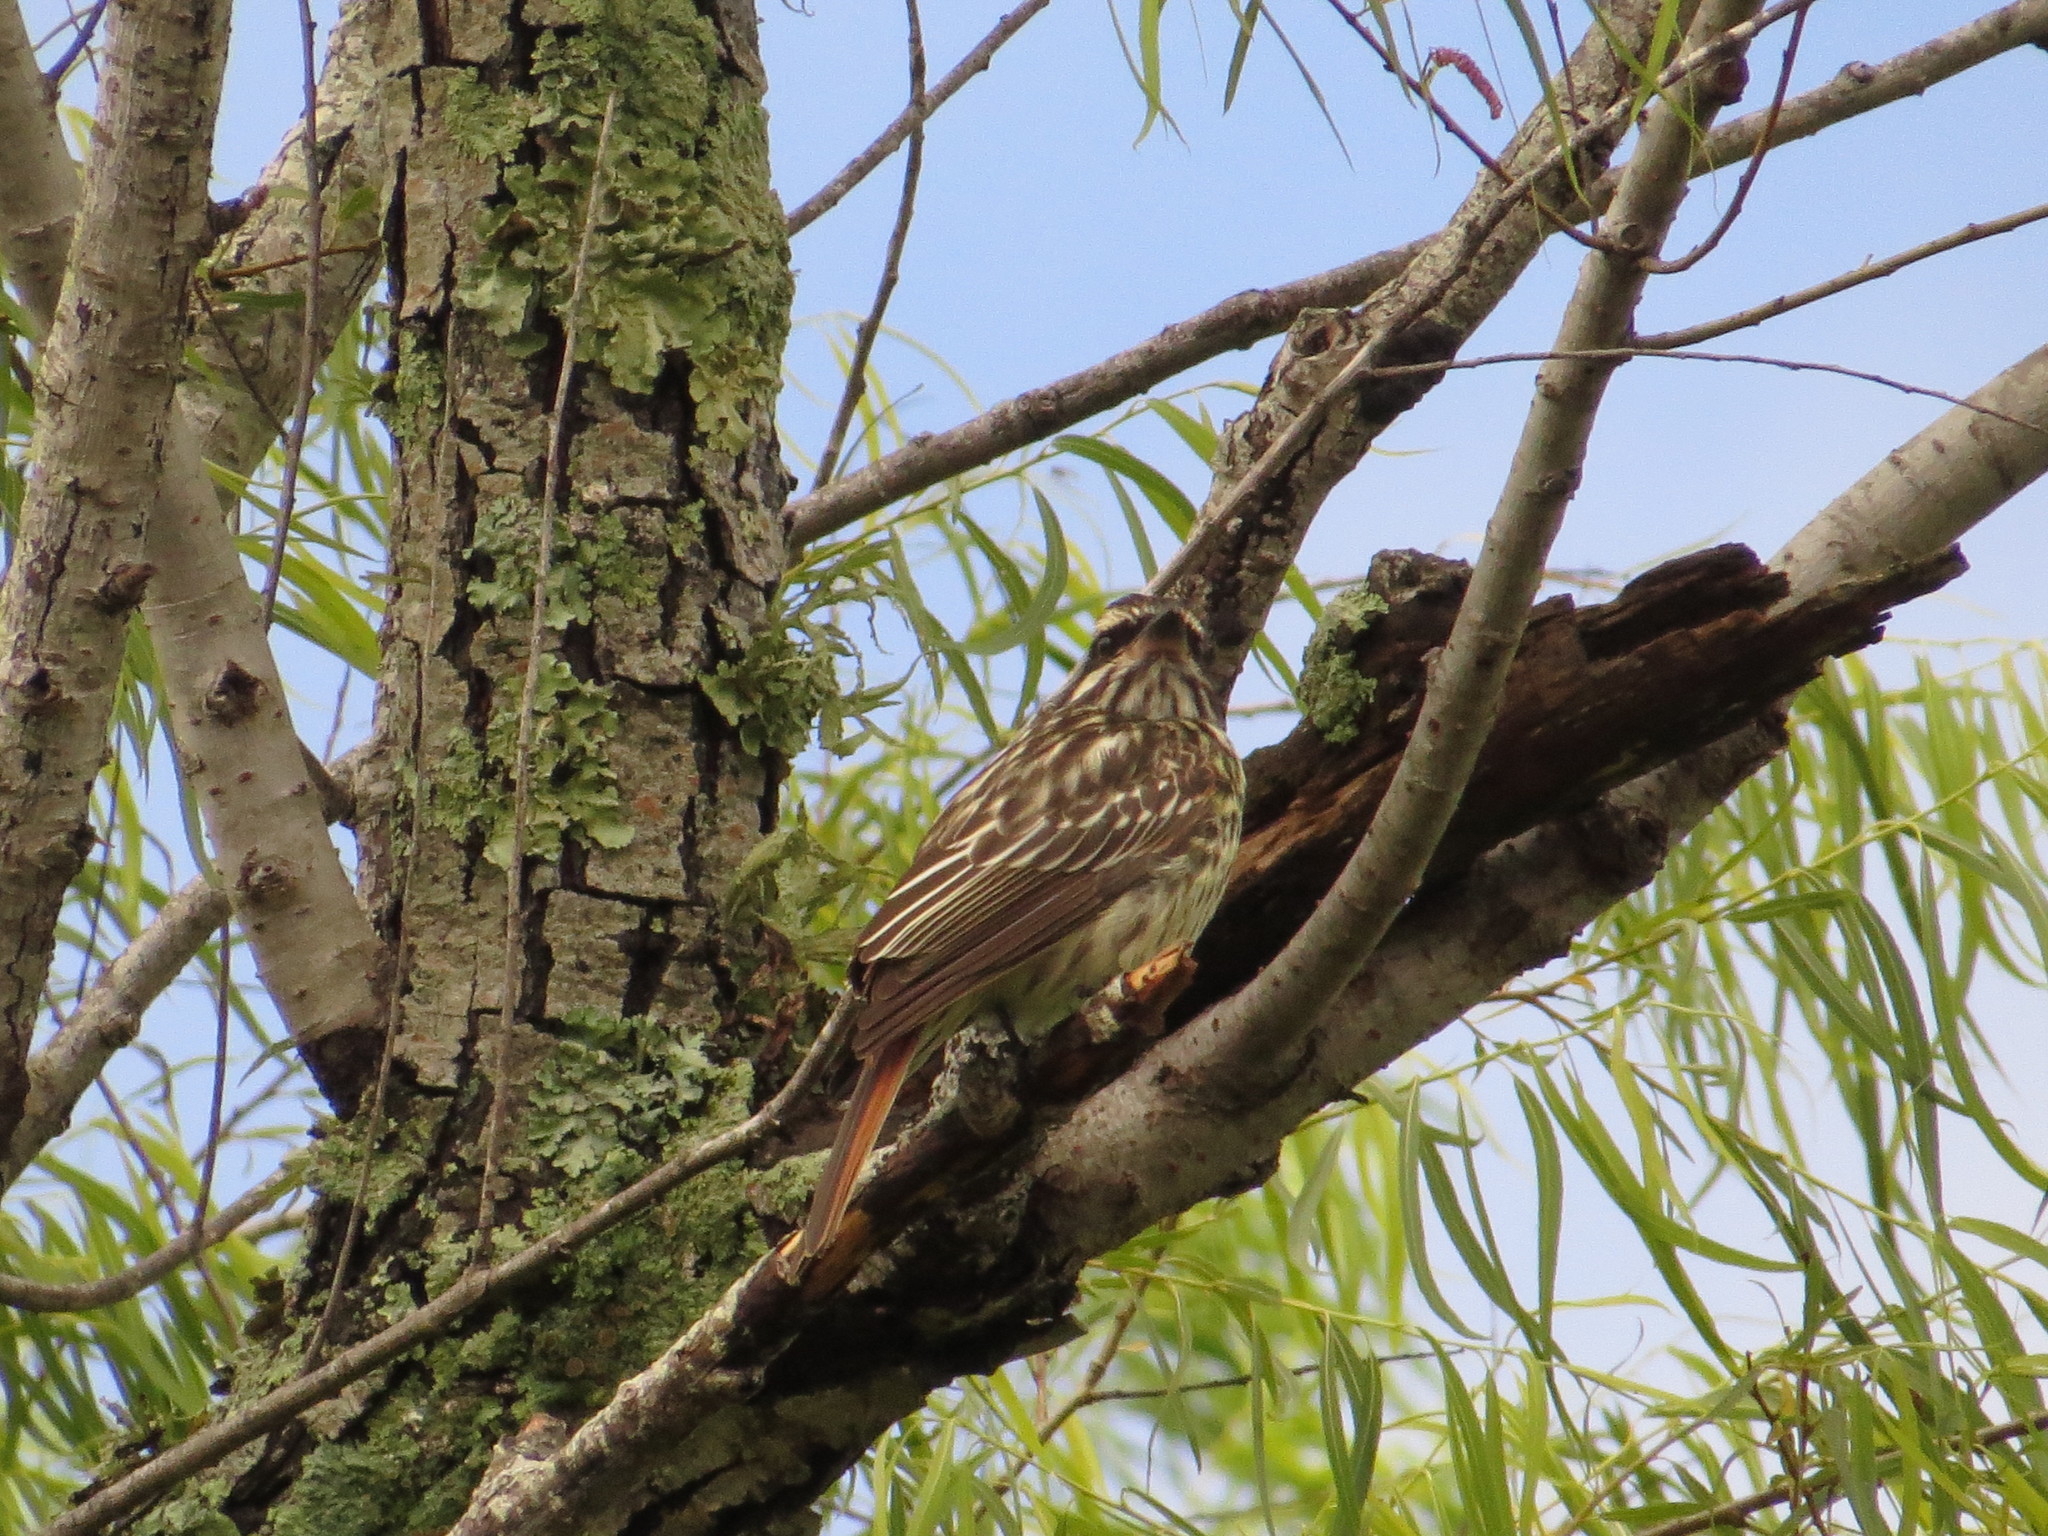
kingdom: Animalia
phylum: Chordata
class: Aves
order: Passeriformes
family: Tyrannidae
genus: Myiodynastes
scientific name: Myiodynastes maculatus
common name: Streaked flycatcher
